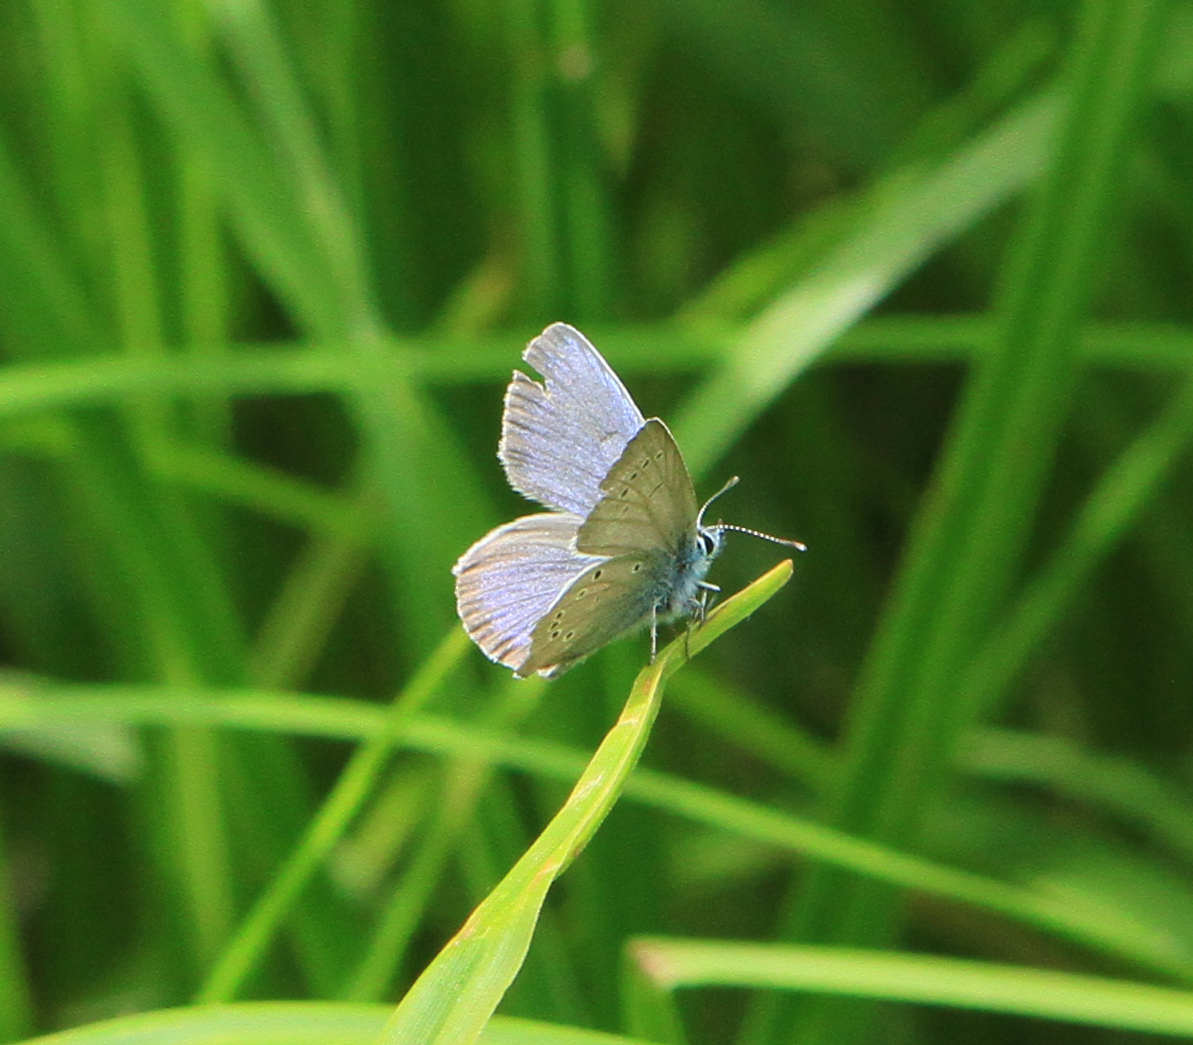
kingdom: Animalia
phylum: Arthropoda
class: Insecta
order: Lepidoptera
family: Lycaenidae
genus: Cyaniris
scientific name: Cyaniris semiargus
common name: Mazarine blue
